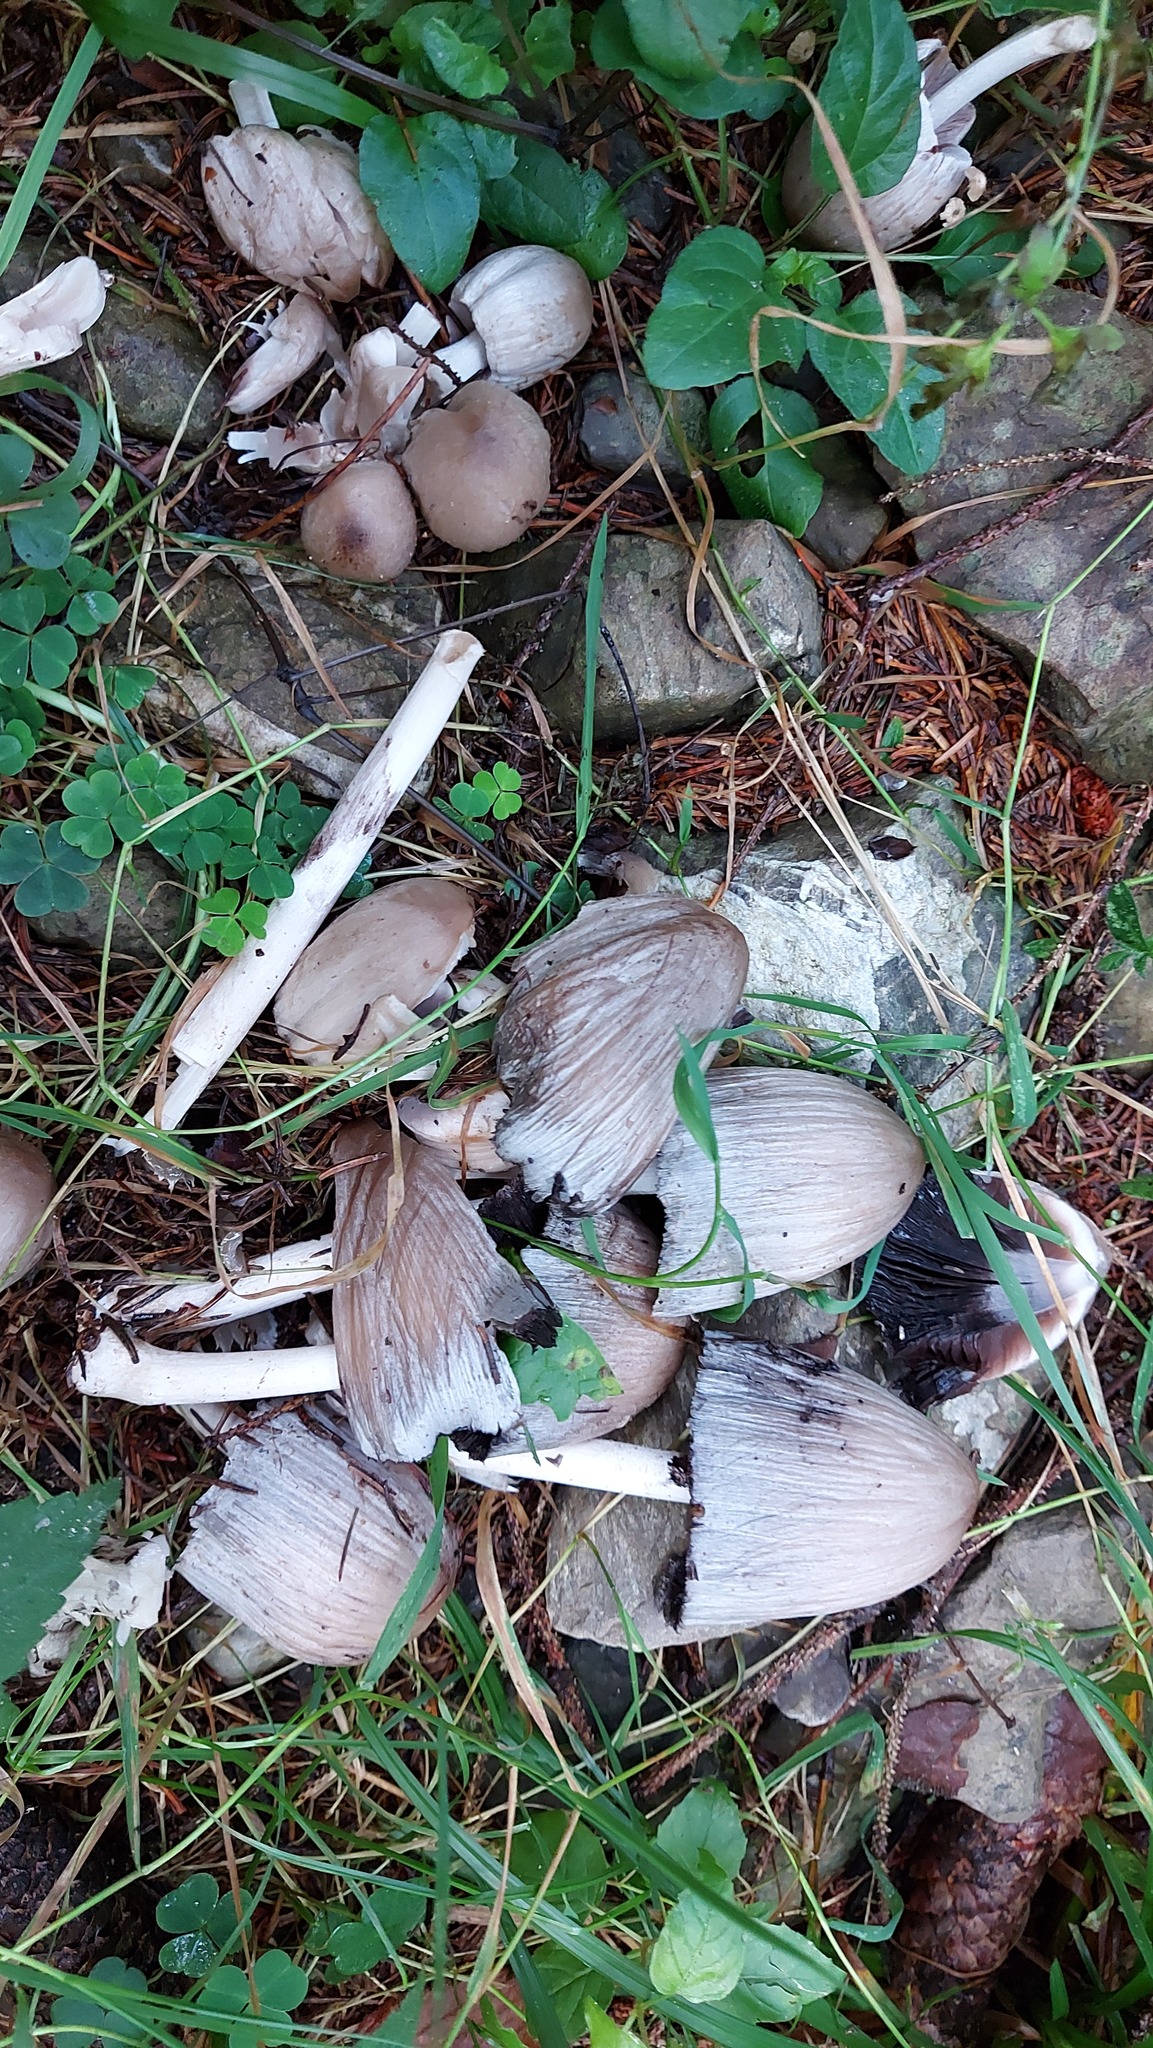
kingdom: Fungi
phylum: Basidiomycota
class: Agaricomycetes
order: Agaricales
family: Psathyrellaceae
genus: Coprinopsis
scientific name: Coprinopsis atramentaria
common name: Common ink-cap
